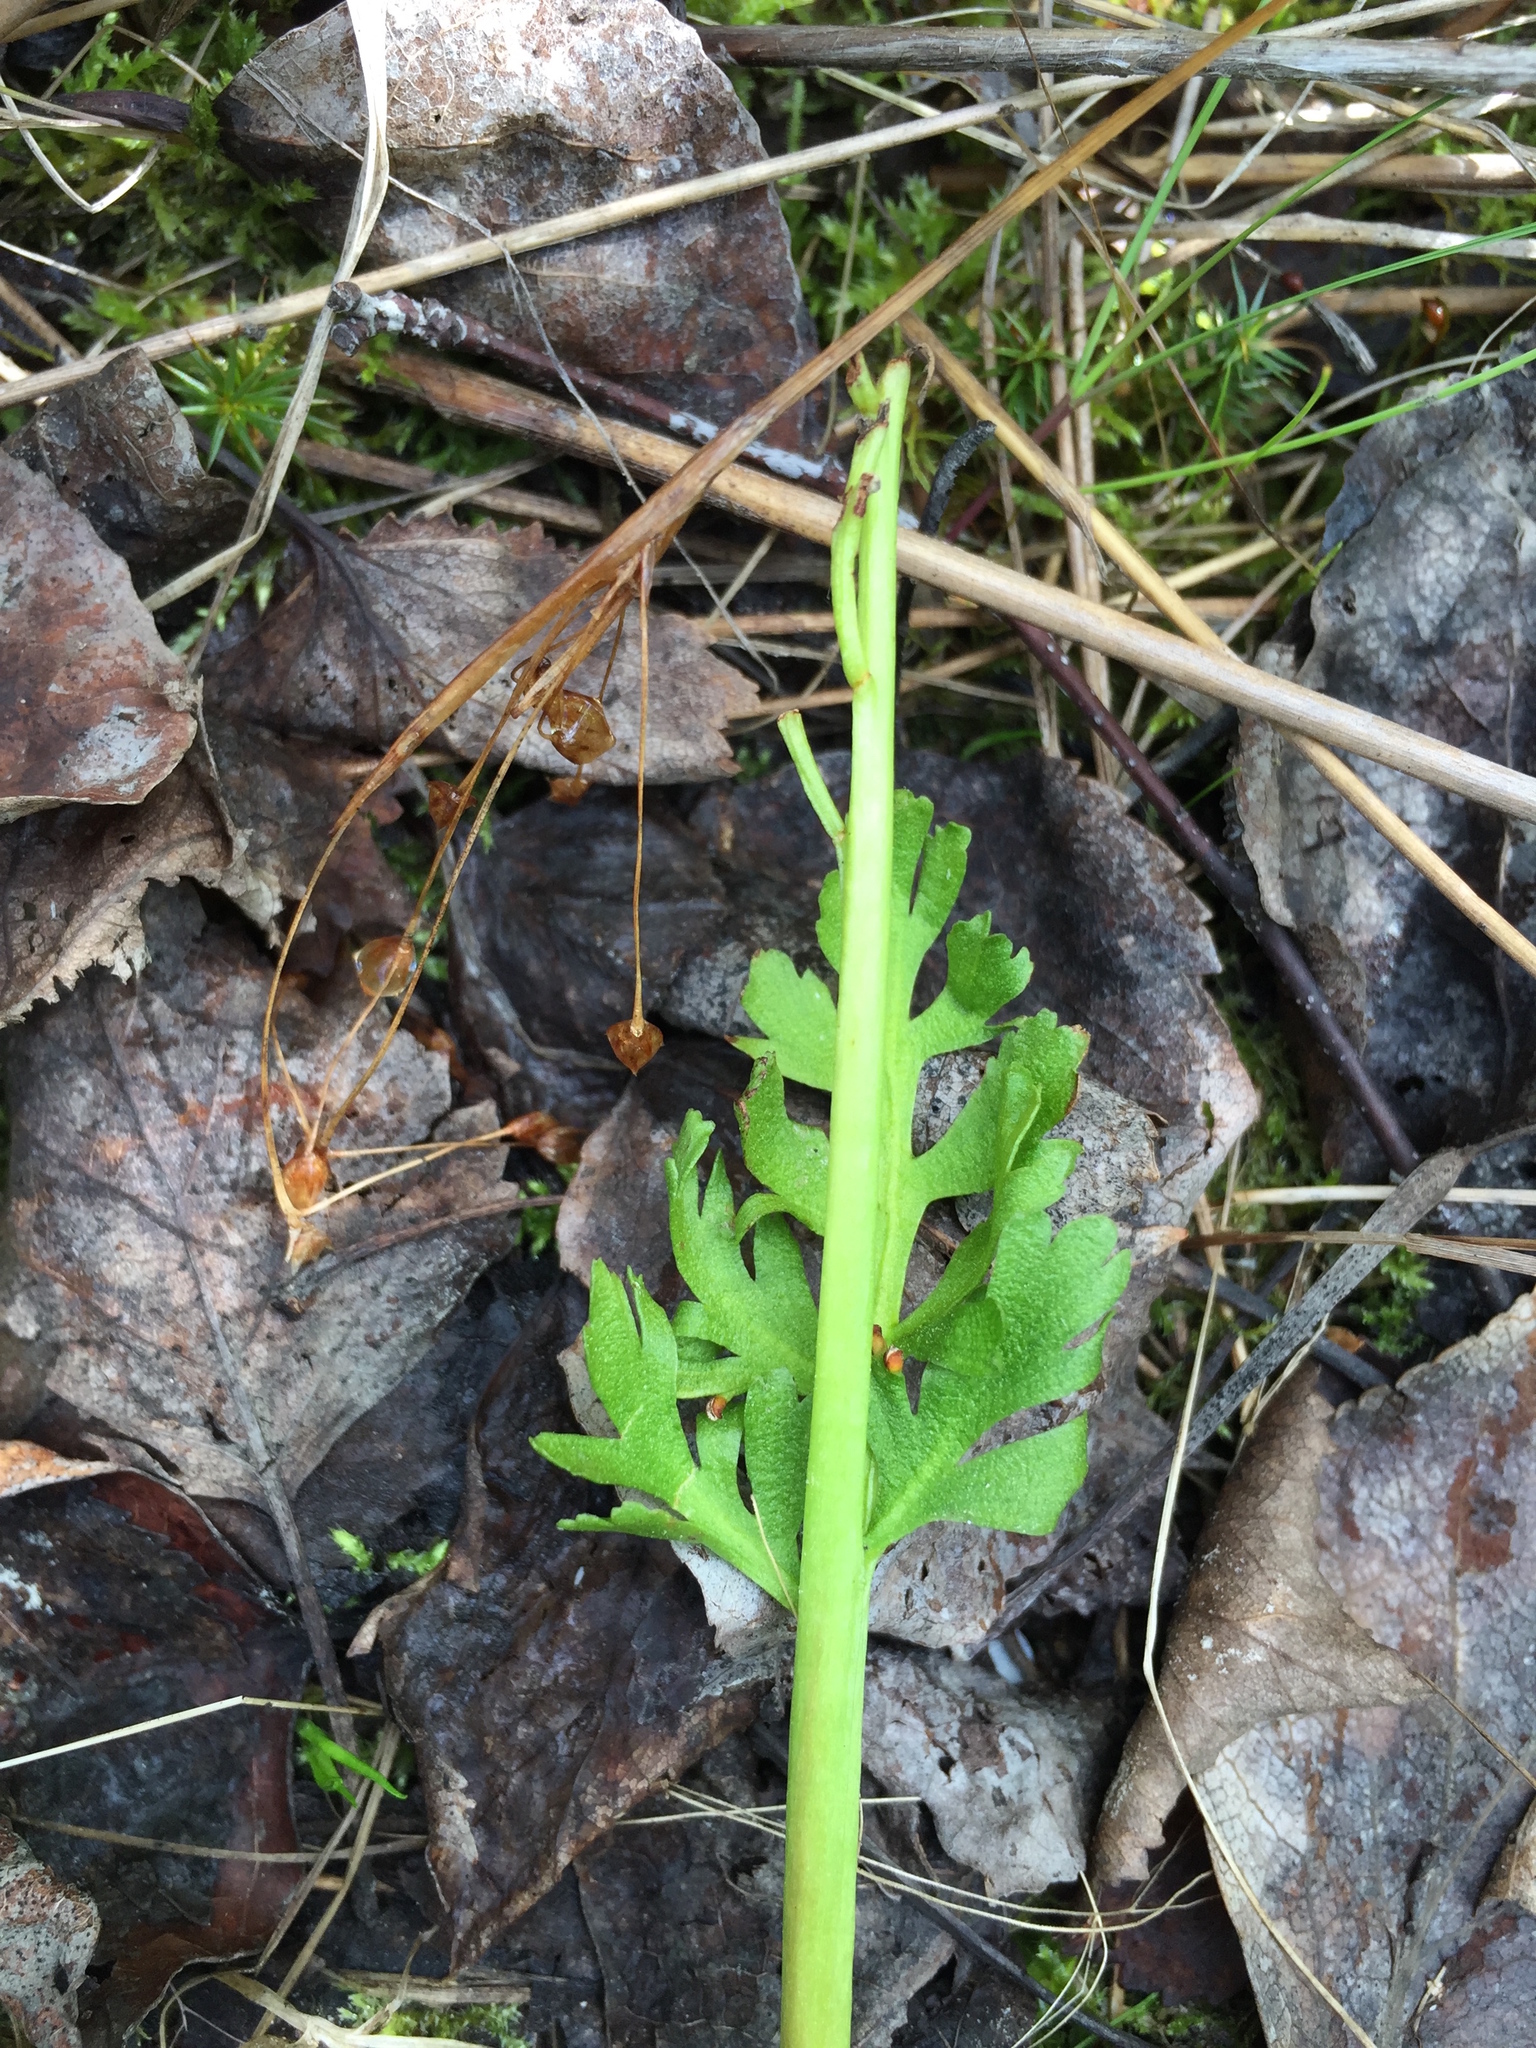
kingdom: Plantae
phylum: Tracheophyta
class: Polypodiopsida
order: Ophioglossales
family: Ophioglossaceae
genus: Botrychium
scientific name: Botrychium alaskense
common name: Alaska moonwort
